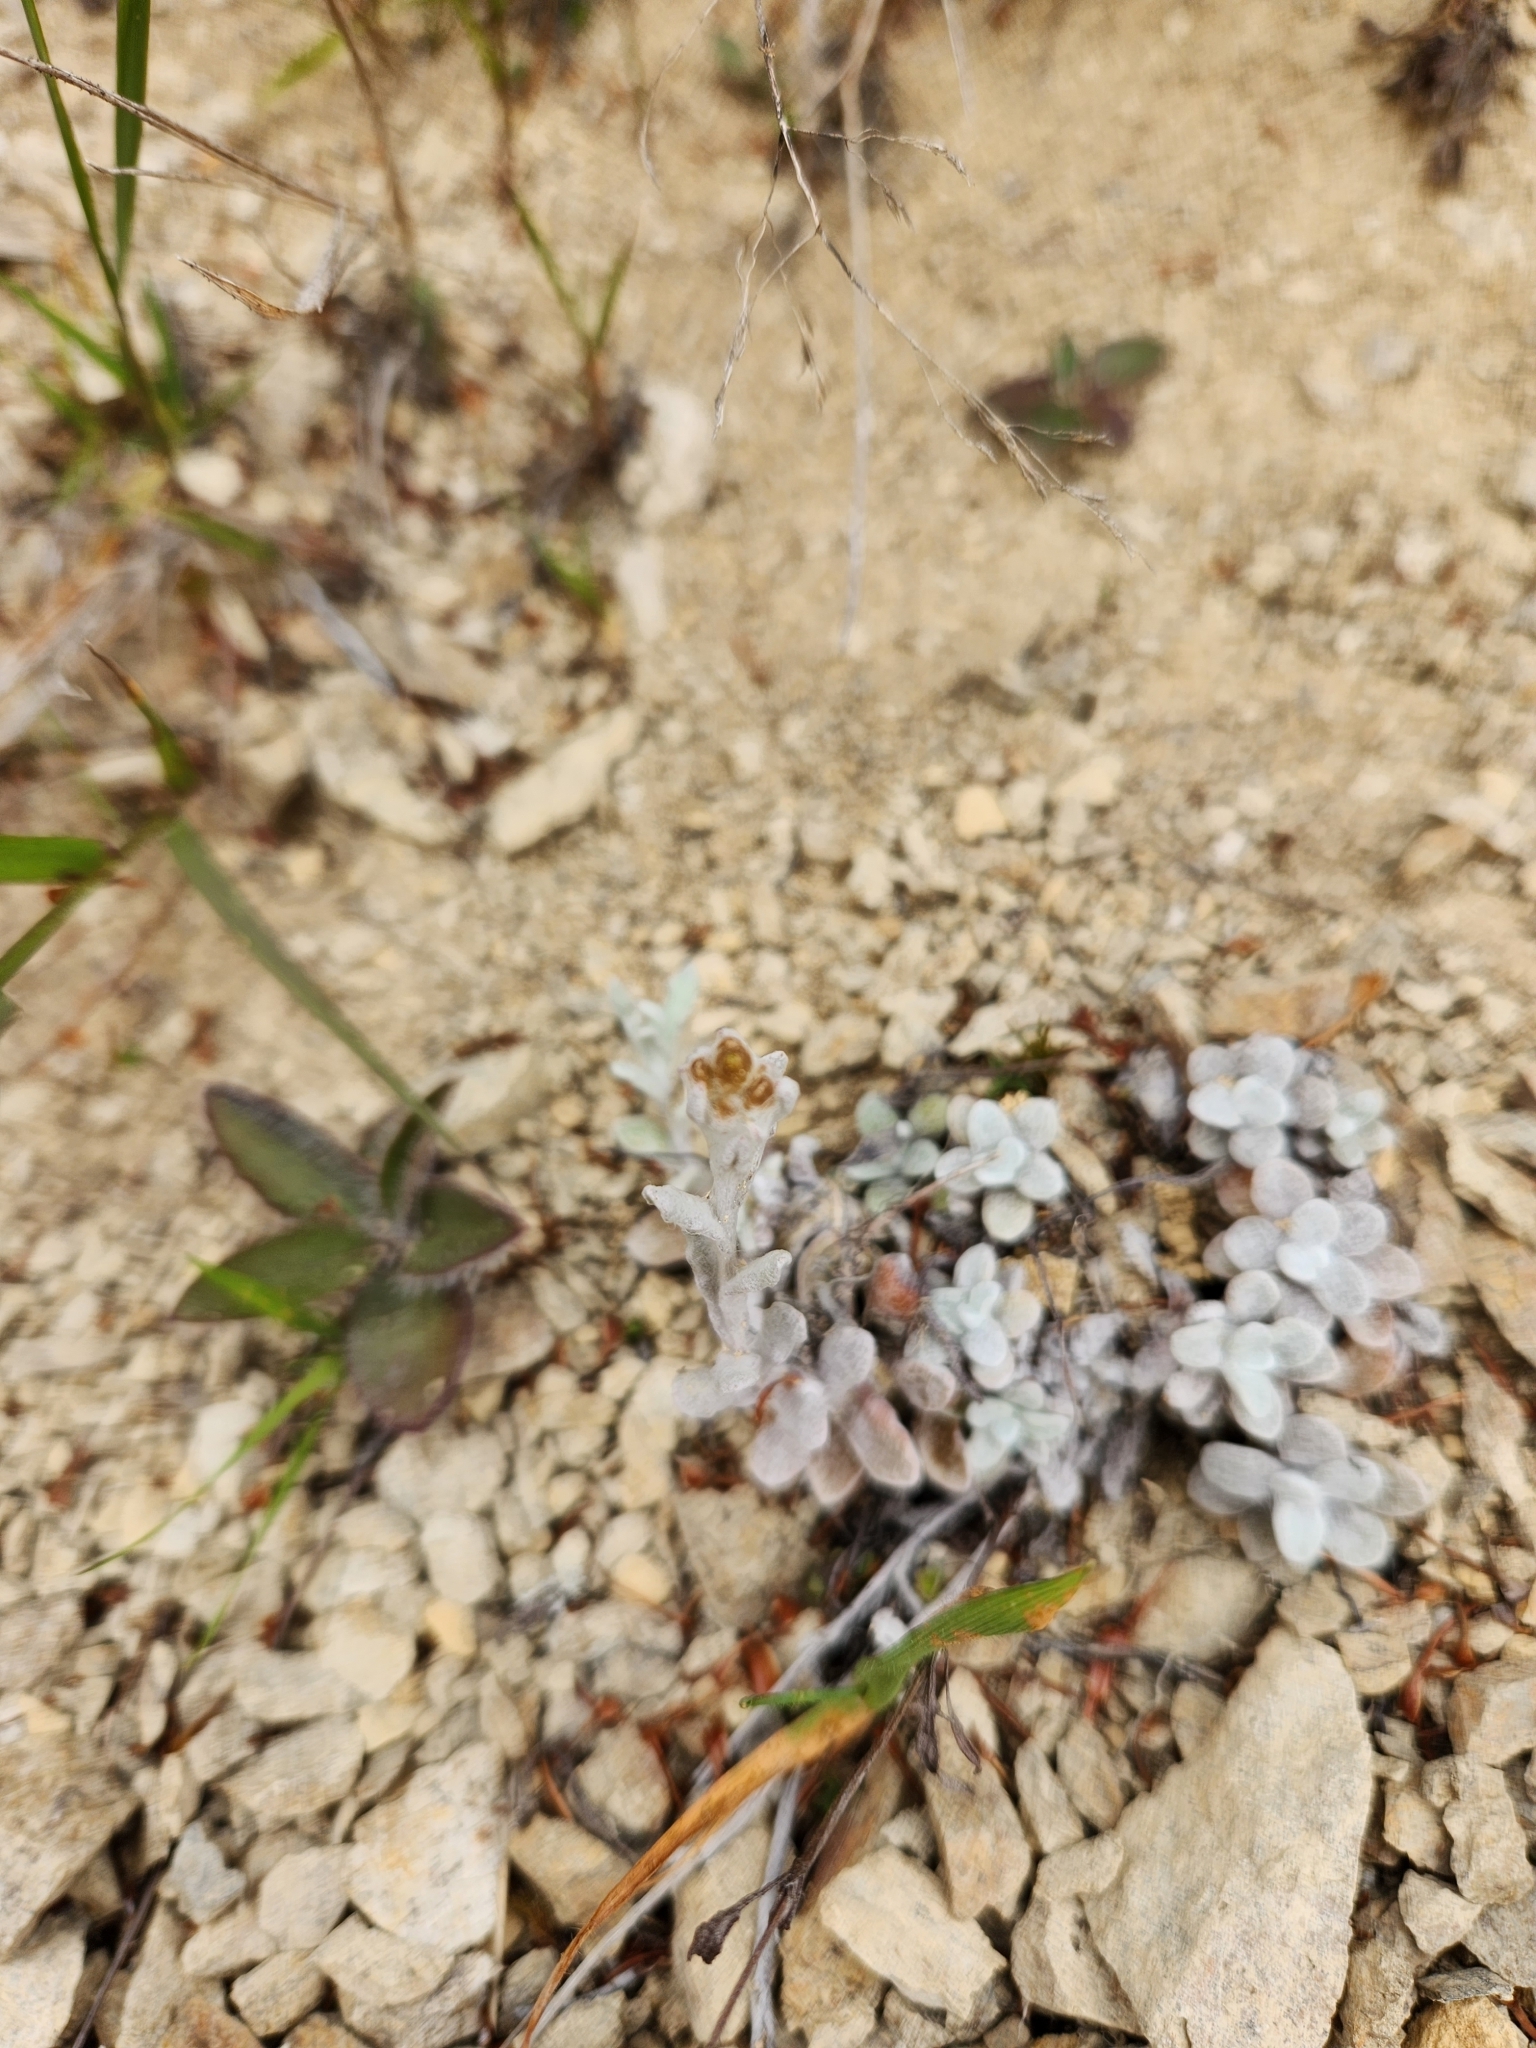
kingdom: Plantae
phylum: Tracheophyta
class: Magnoliopsida
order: Asterales
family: Asteraceae
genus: Pseudognaphalium
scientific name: Pseudognaphalium
